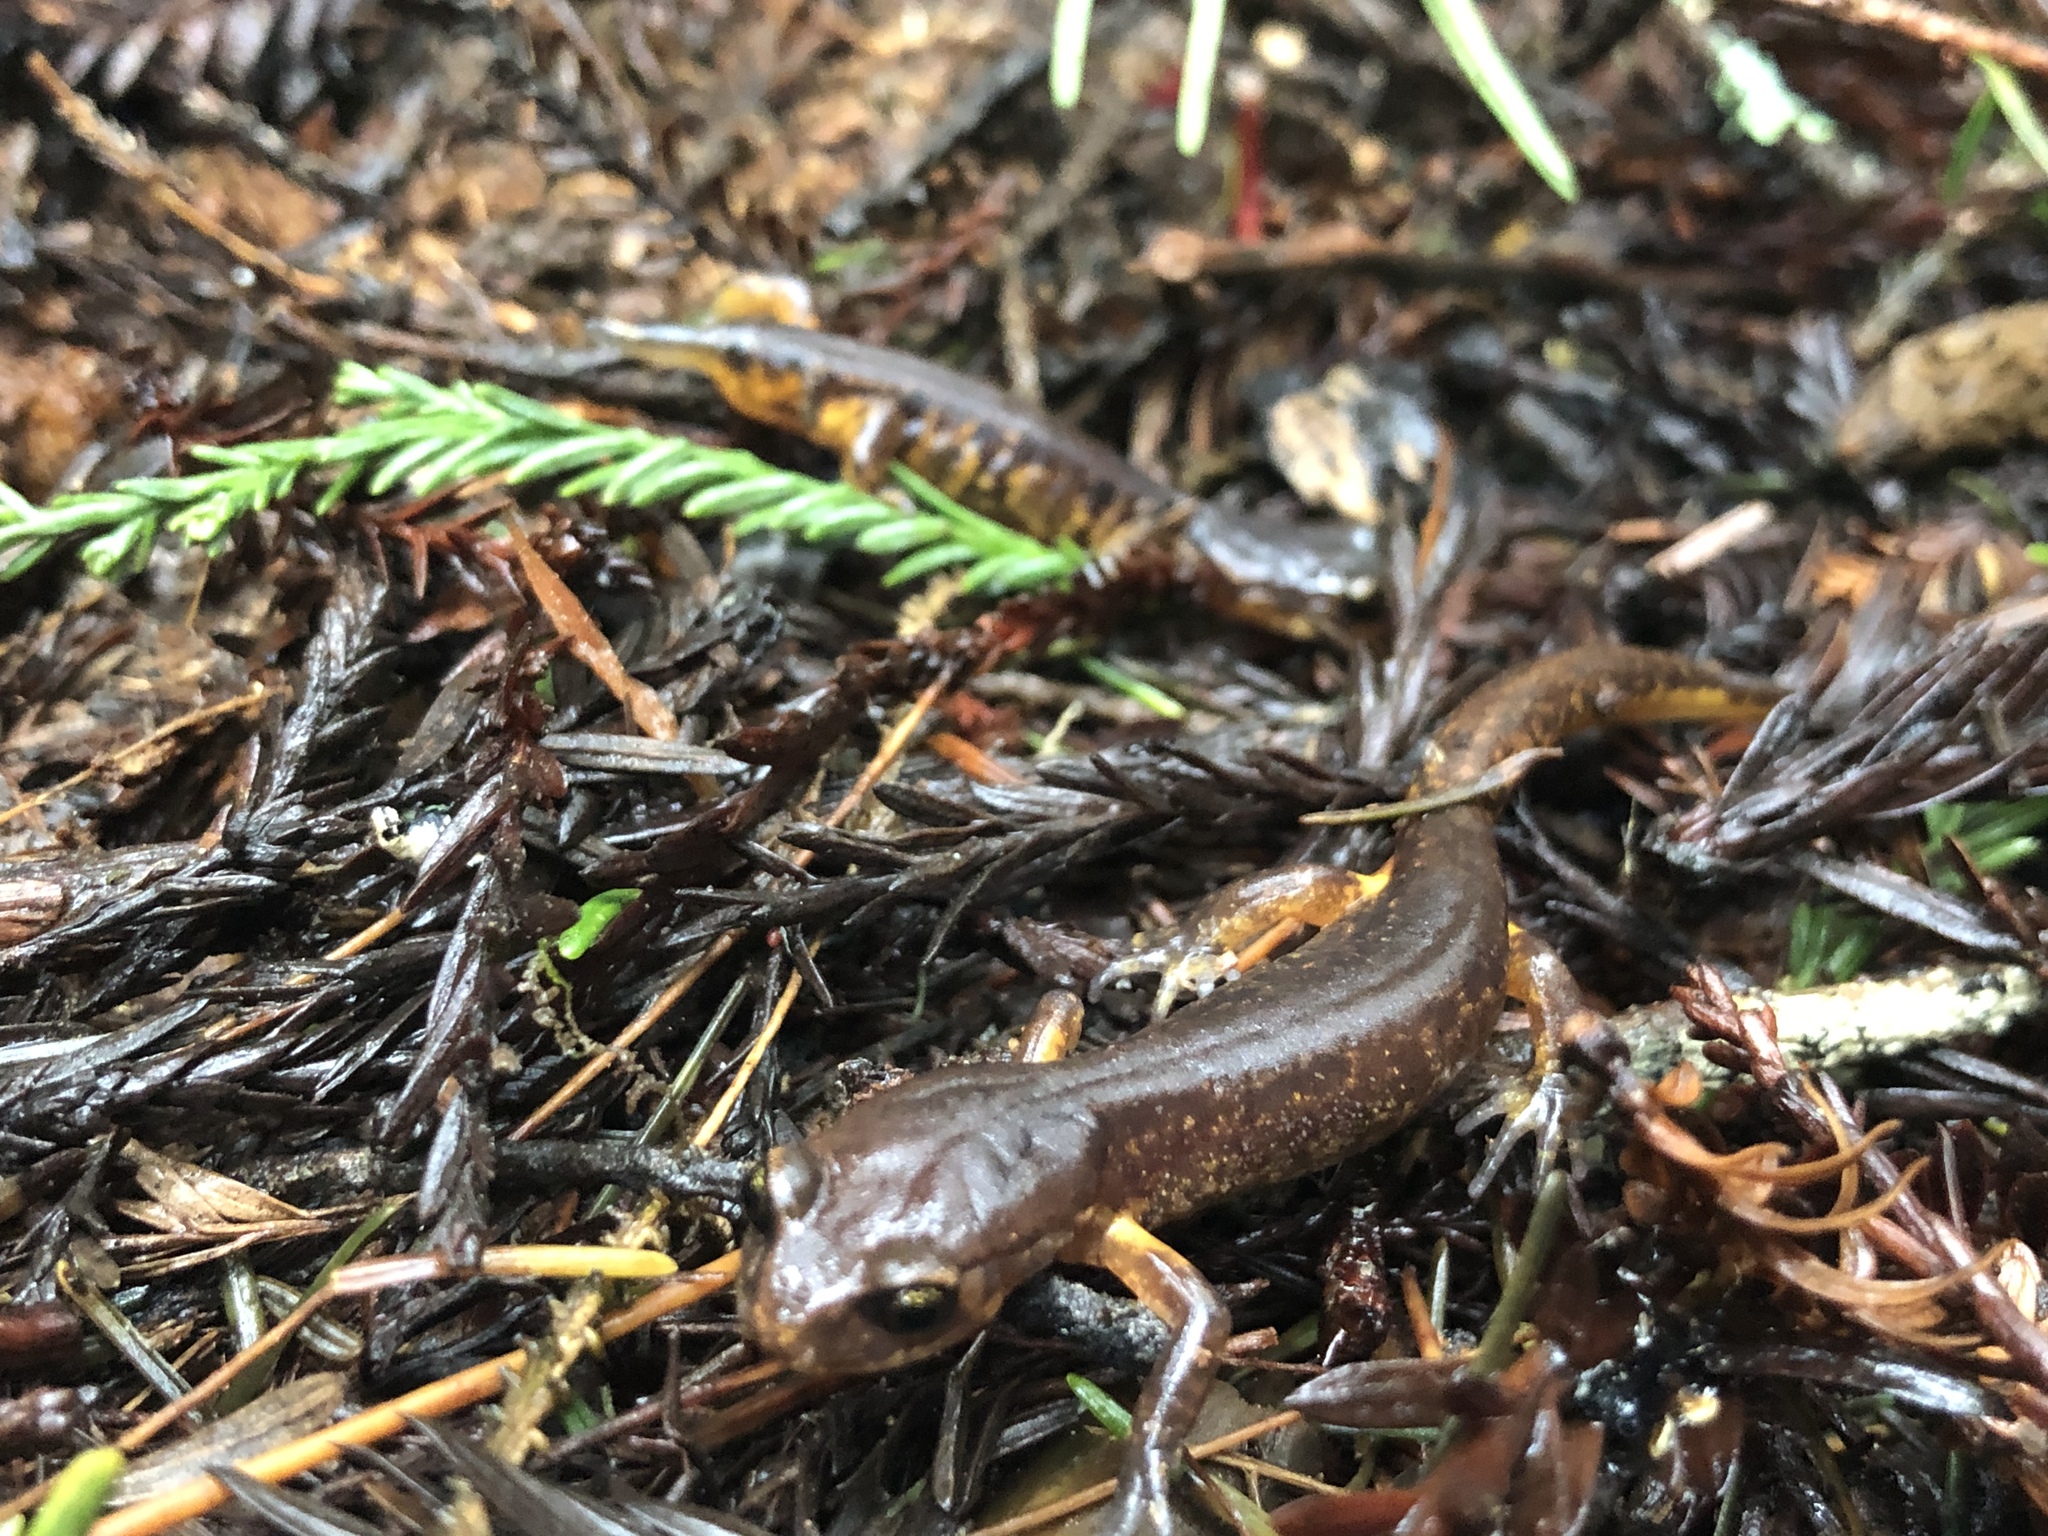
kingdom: Animalia
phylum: Chordata
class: Amphibia
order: Caudata
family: Plethodontidae
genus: Ensatina
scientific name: Ensatina eschscholtzii
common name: Ensatina
